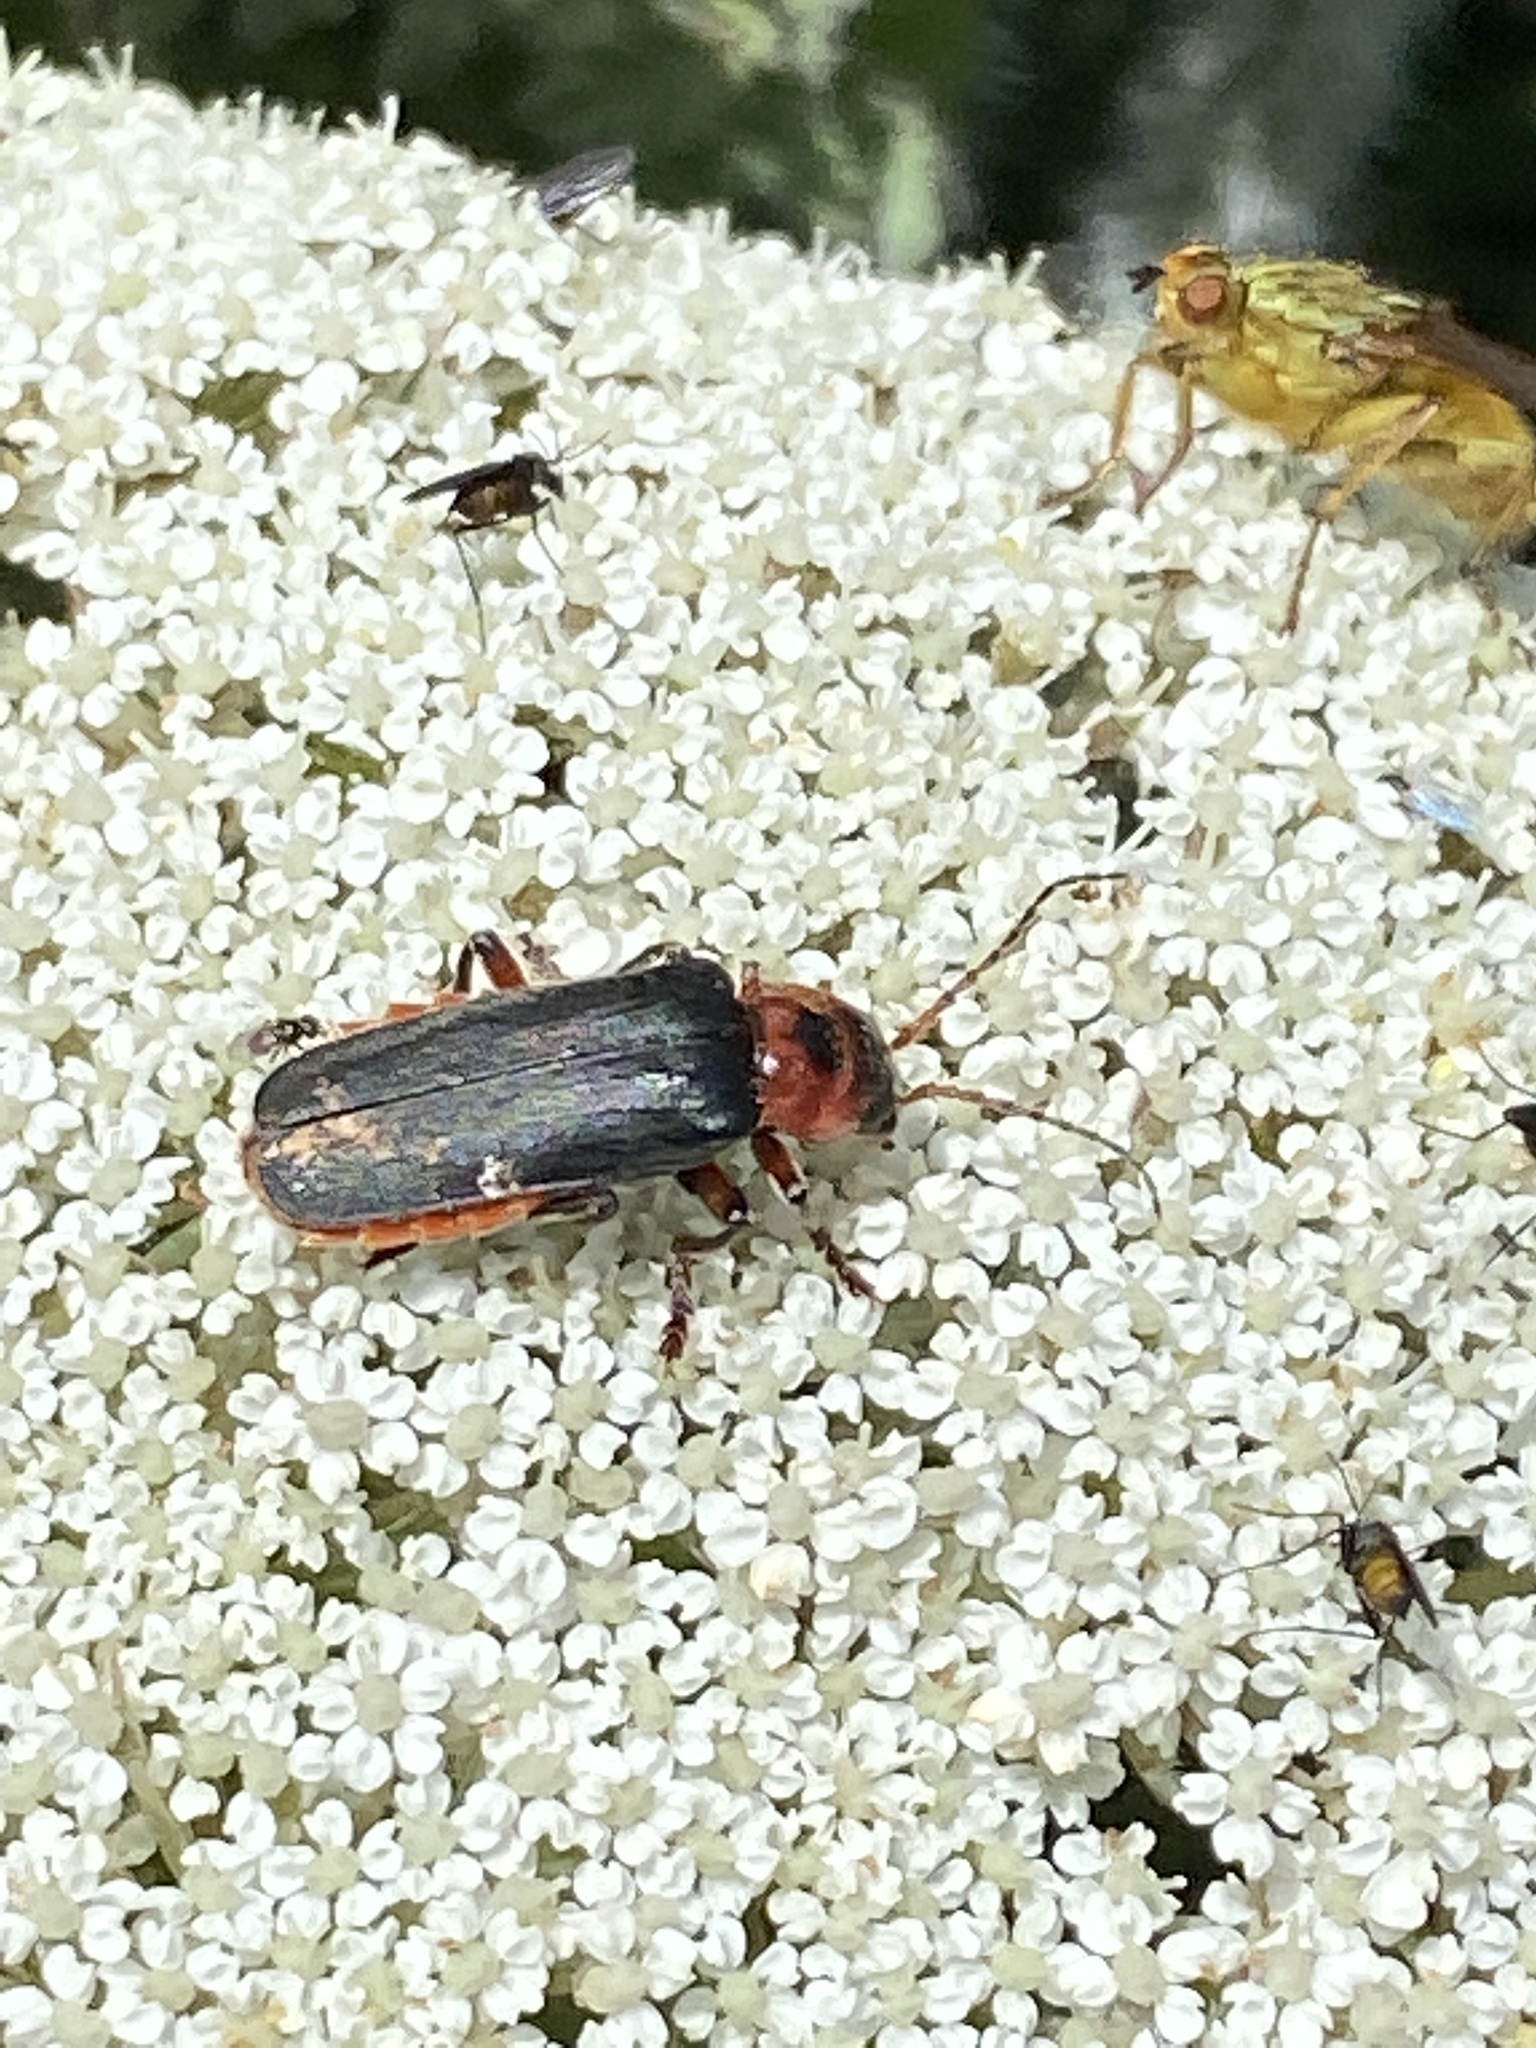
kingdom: Animalia
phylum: Arthropoda
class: Insecta
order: Coleoptera
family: Cantharidae
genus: Cantharis
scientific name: Cantharis rustica
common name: Soldier beetle
